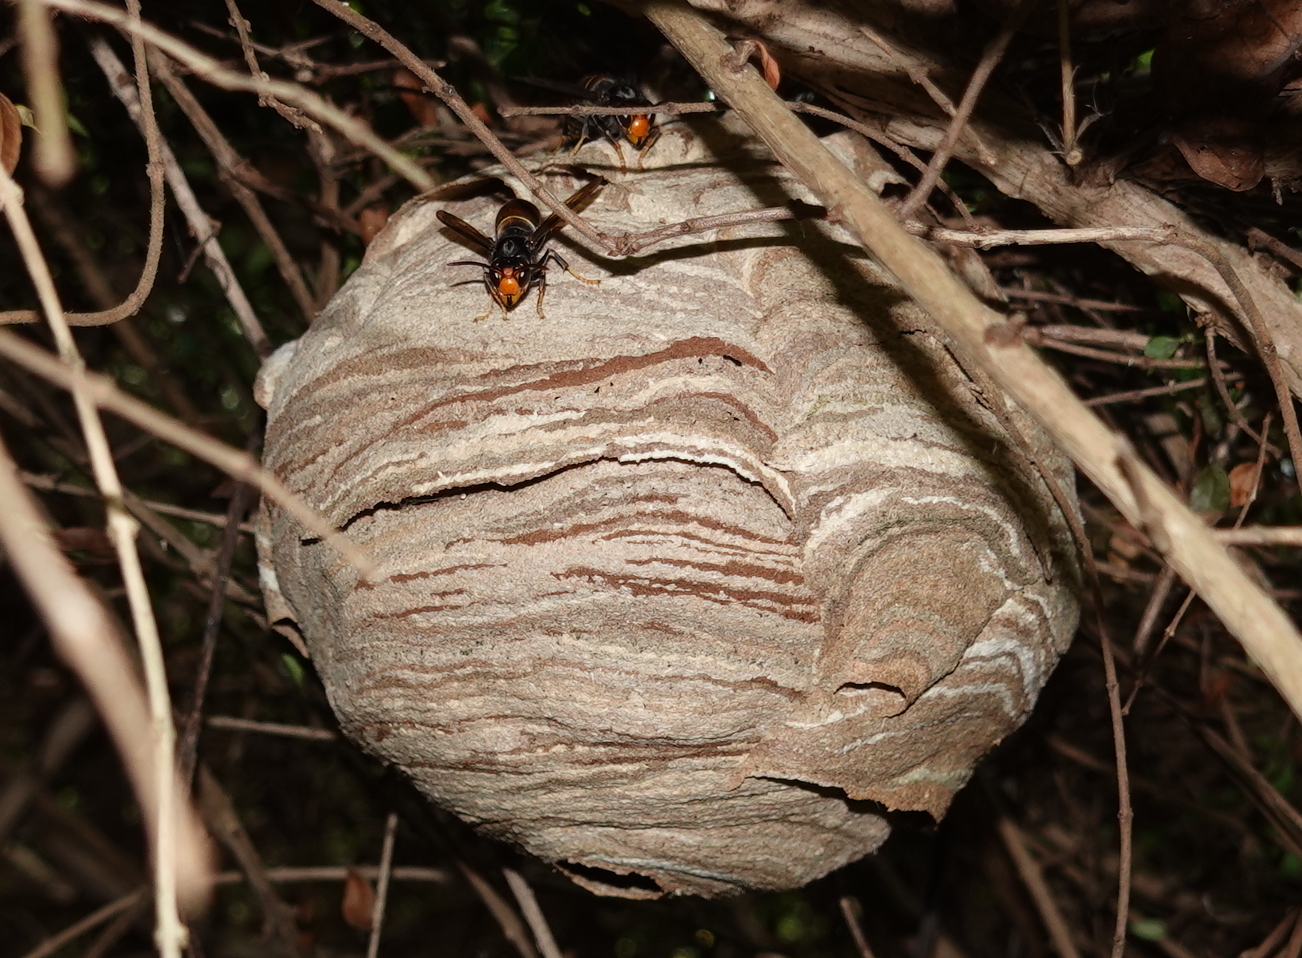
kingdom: Animalia
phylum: Arthropoda
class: Insecta
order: Hymenoptera
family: Vespidae
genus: Vespa
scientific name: Vespa velutina
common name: Asian hornet
